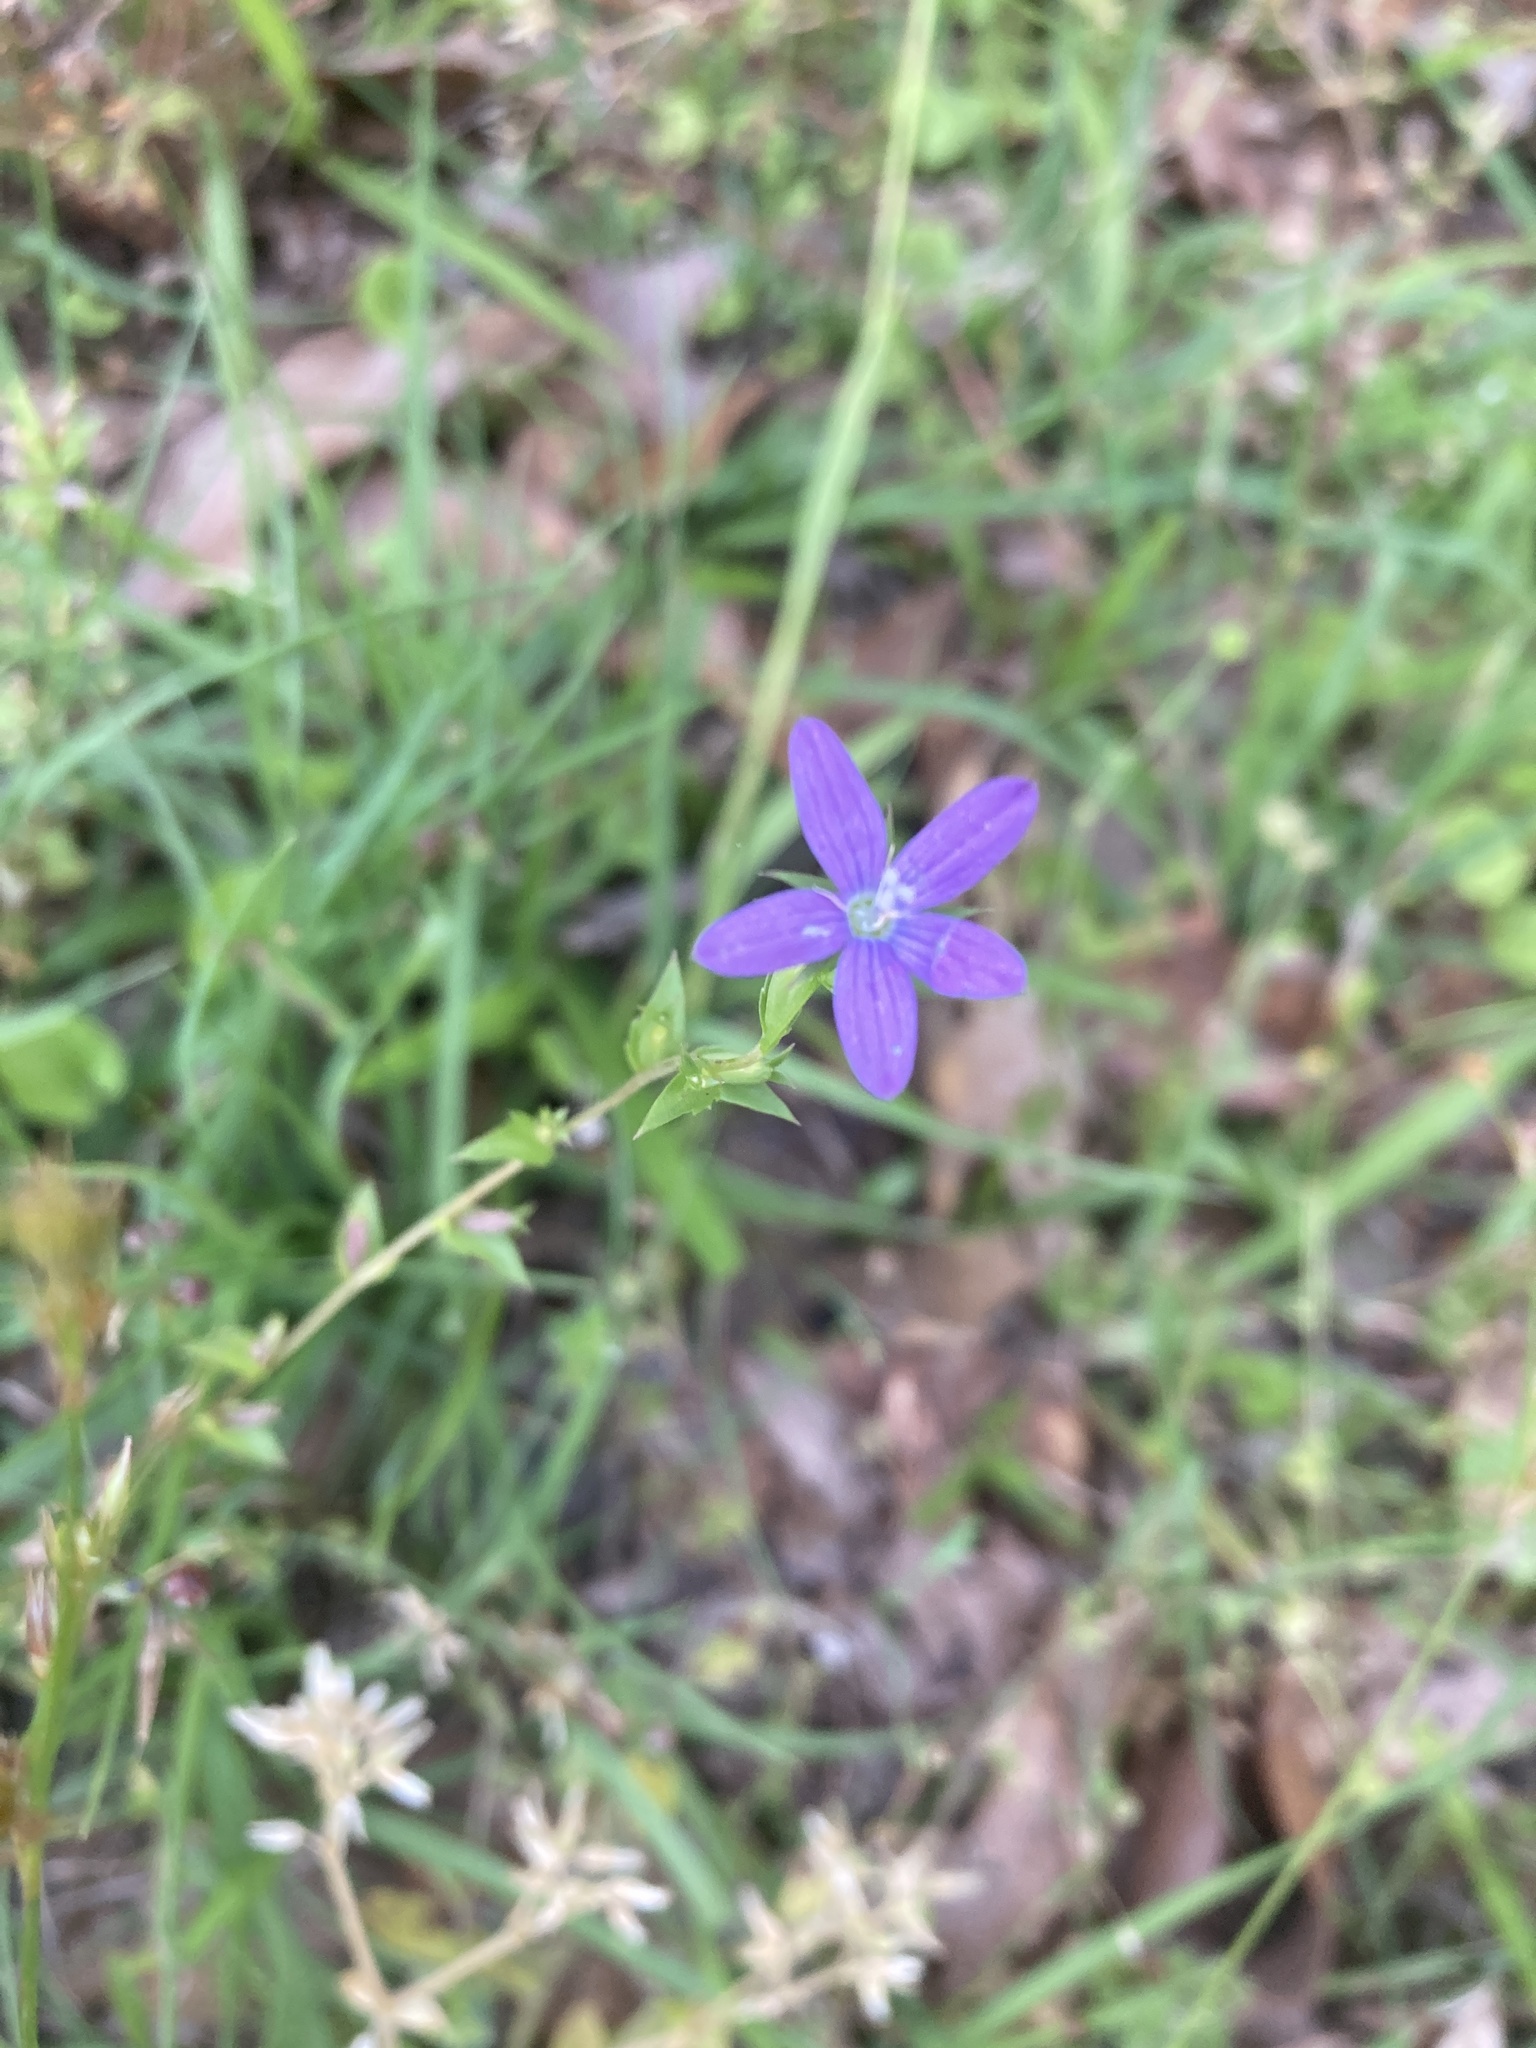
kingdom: Plantae
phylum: Tracheophyta
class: Magnoliopsida
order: Asterales
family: Campanulaceae
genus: Triodanis
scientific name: Triodanis biflora
